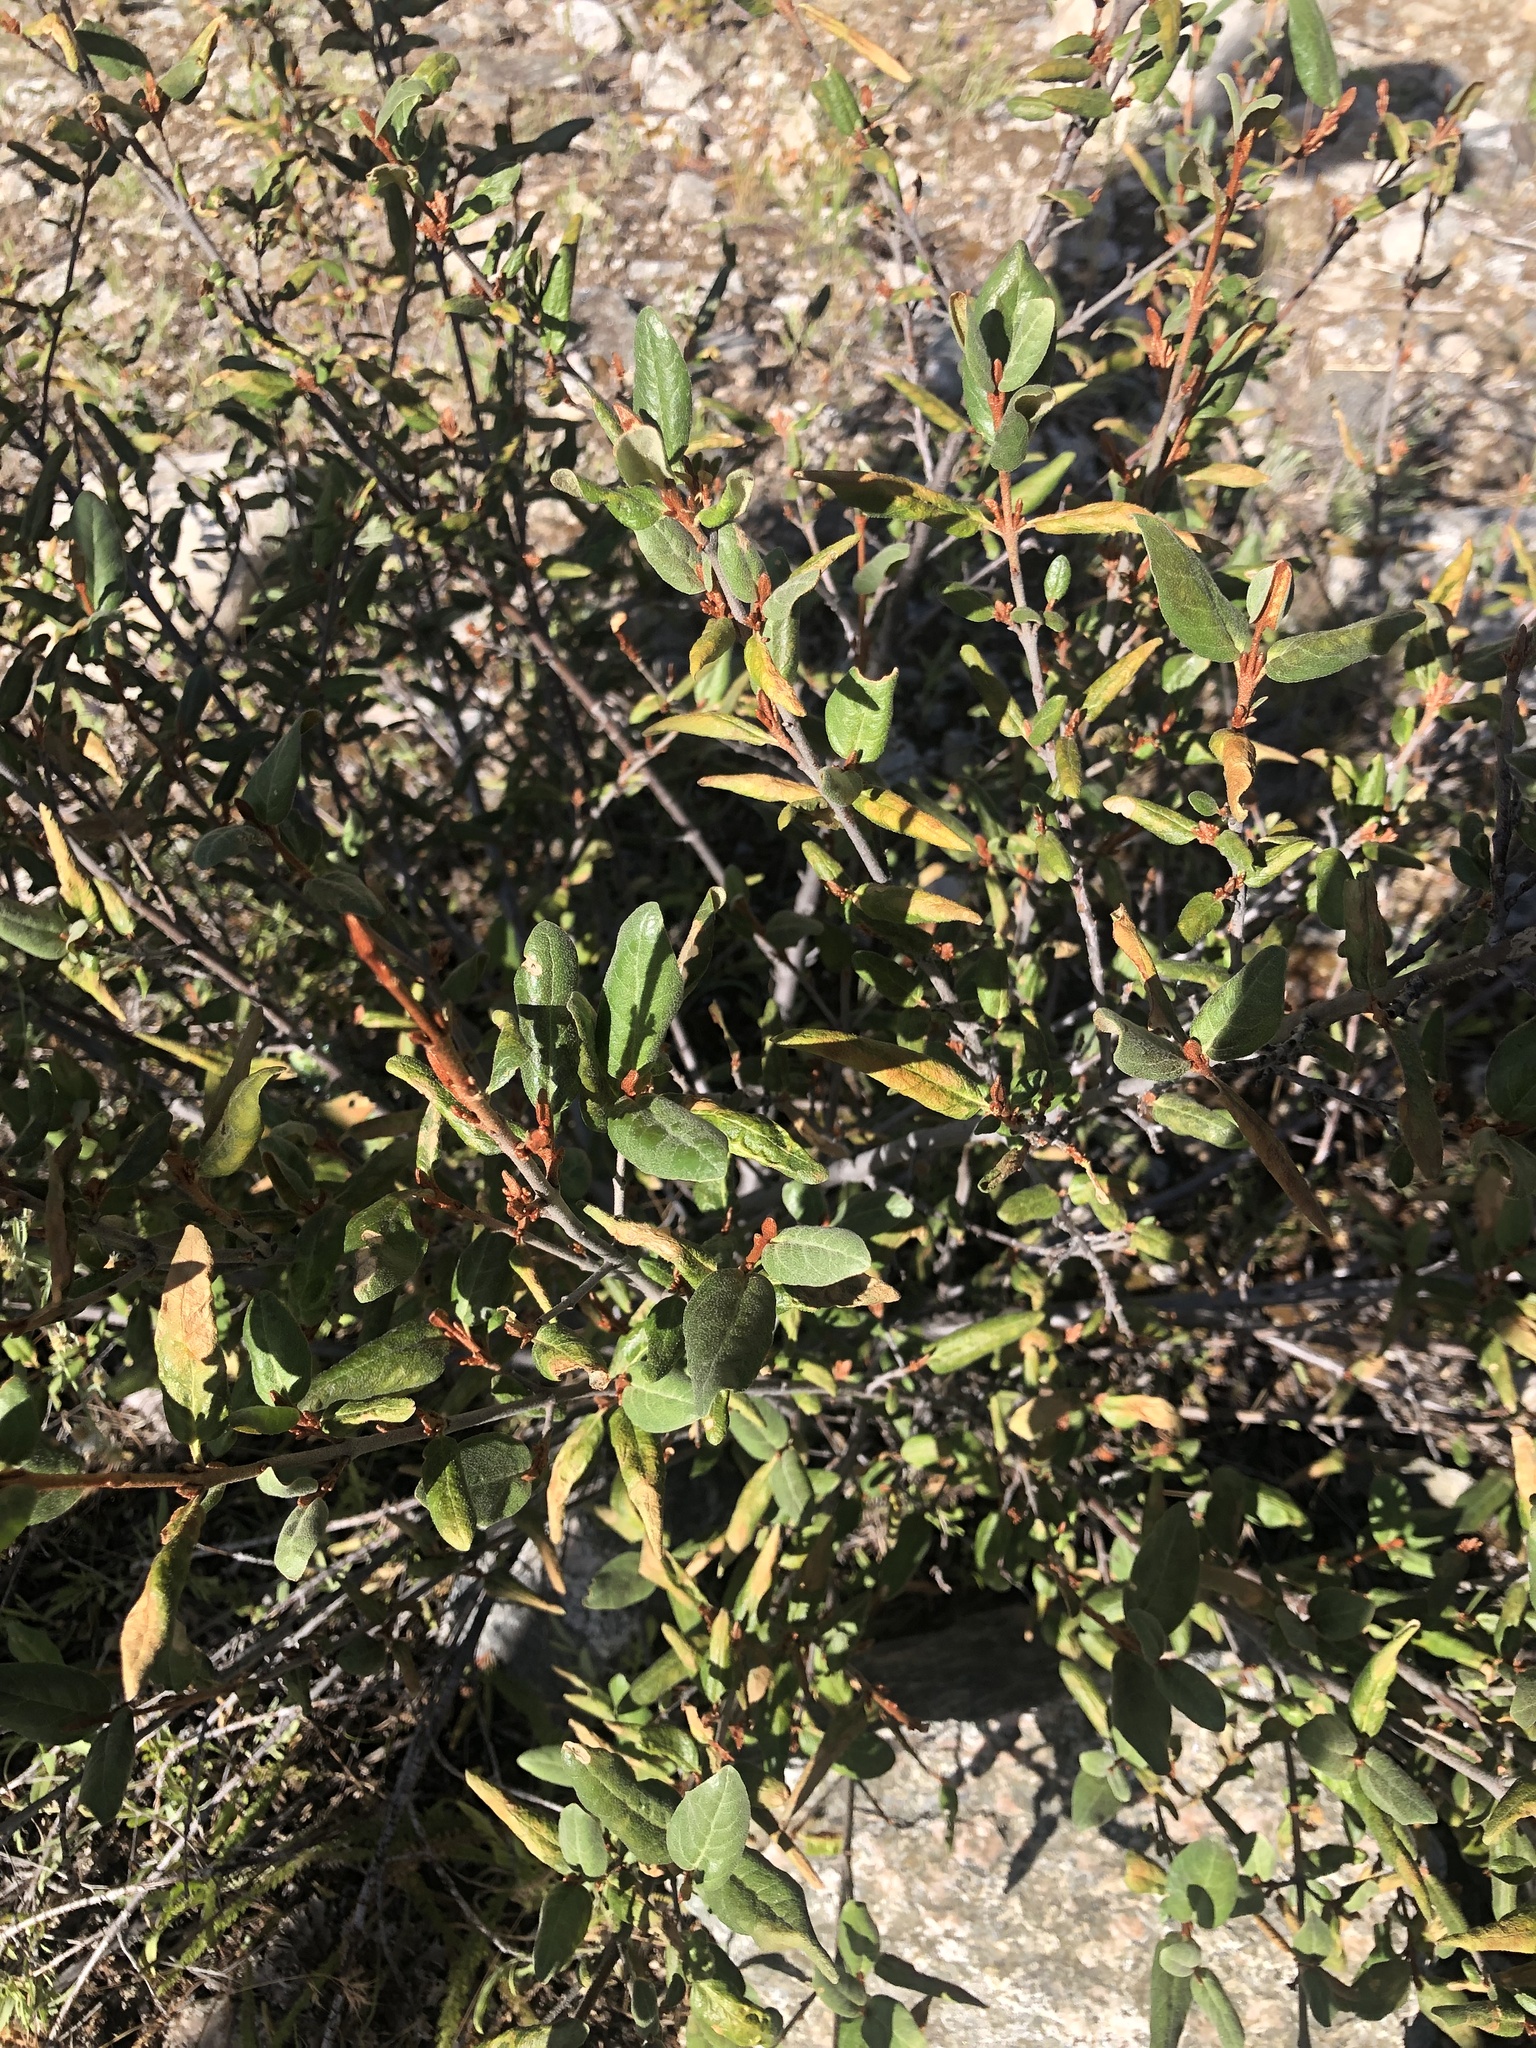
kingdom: Plantae
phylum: Tracheophyta
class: Magnoliopsida
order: Rosales
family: Elaeagnaceae
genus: Shepherdia
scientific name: Shepherdia canadensis
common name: Soapberry
